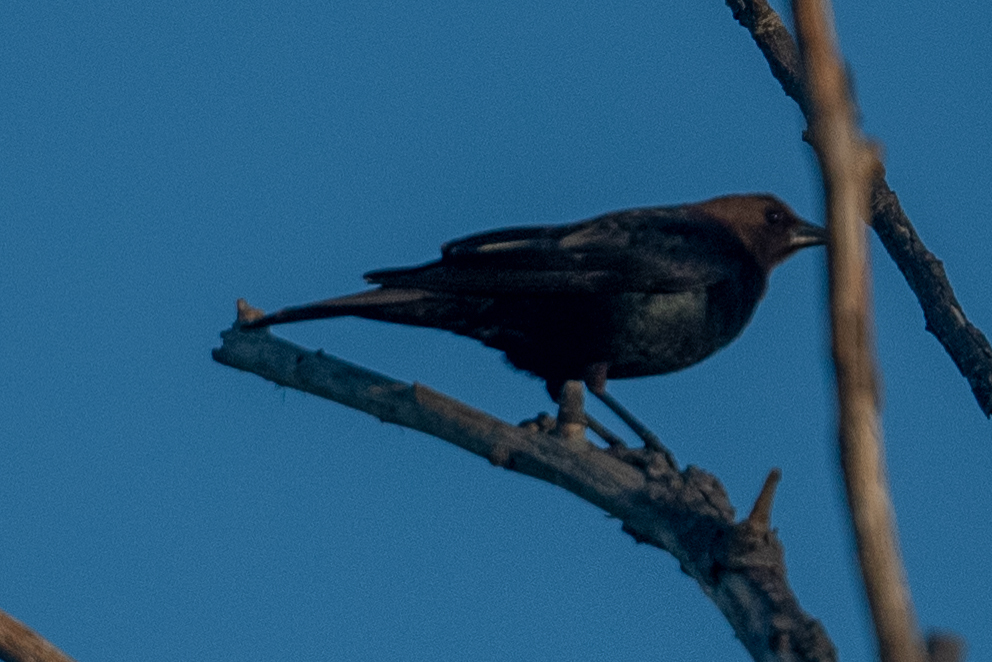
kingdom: Animalia
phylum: Chordata
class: Aves
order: Passeriformes
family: Icteridae
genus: Molothrus
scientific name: Molothrus ater
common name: Brown-headed cowbird
